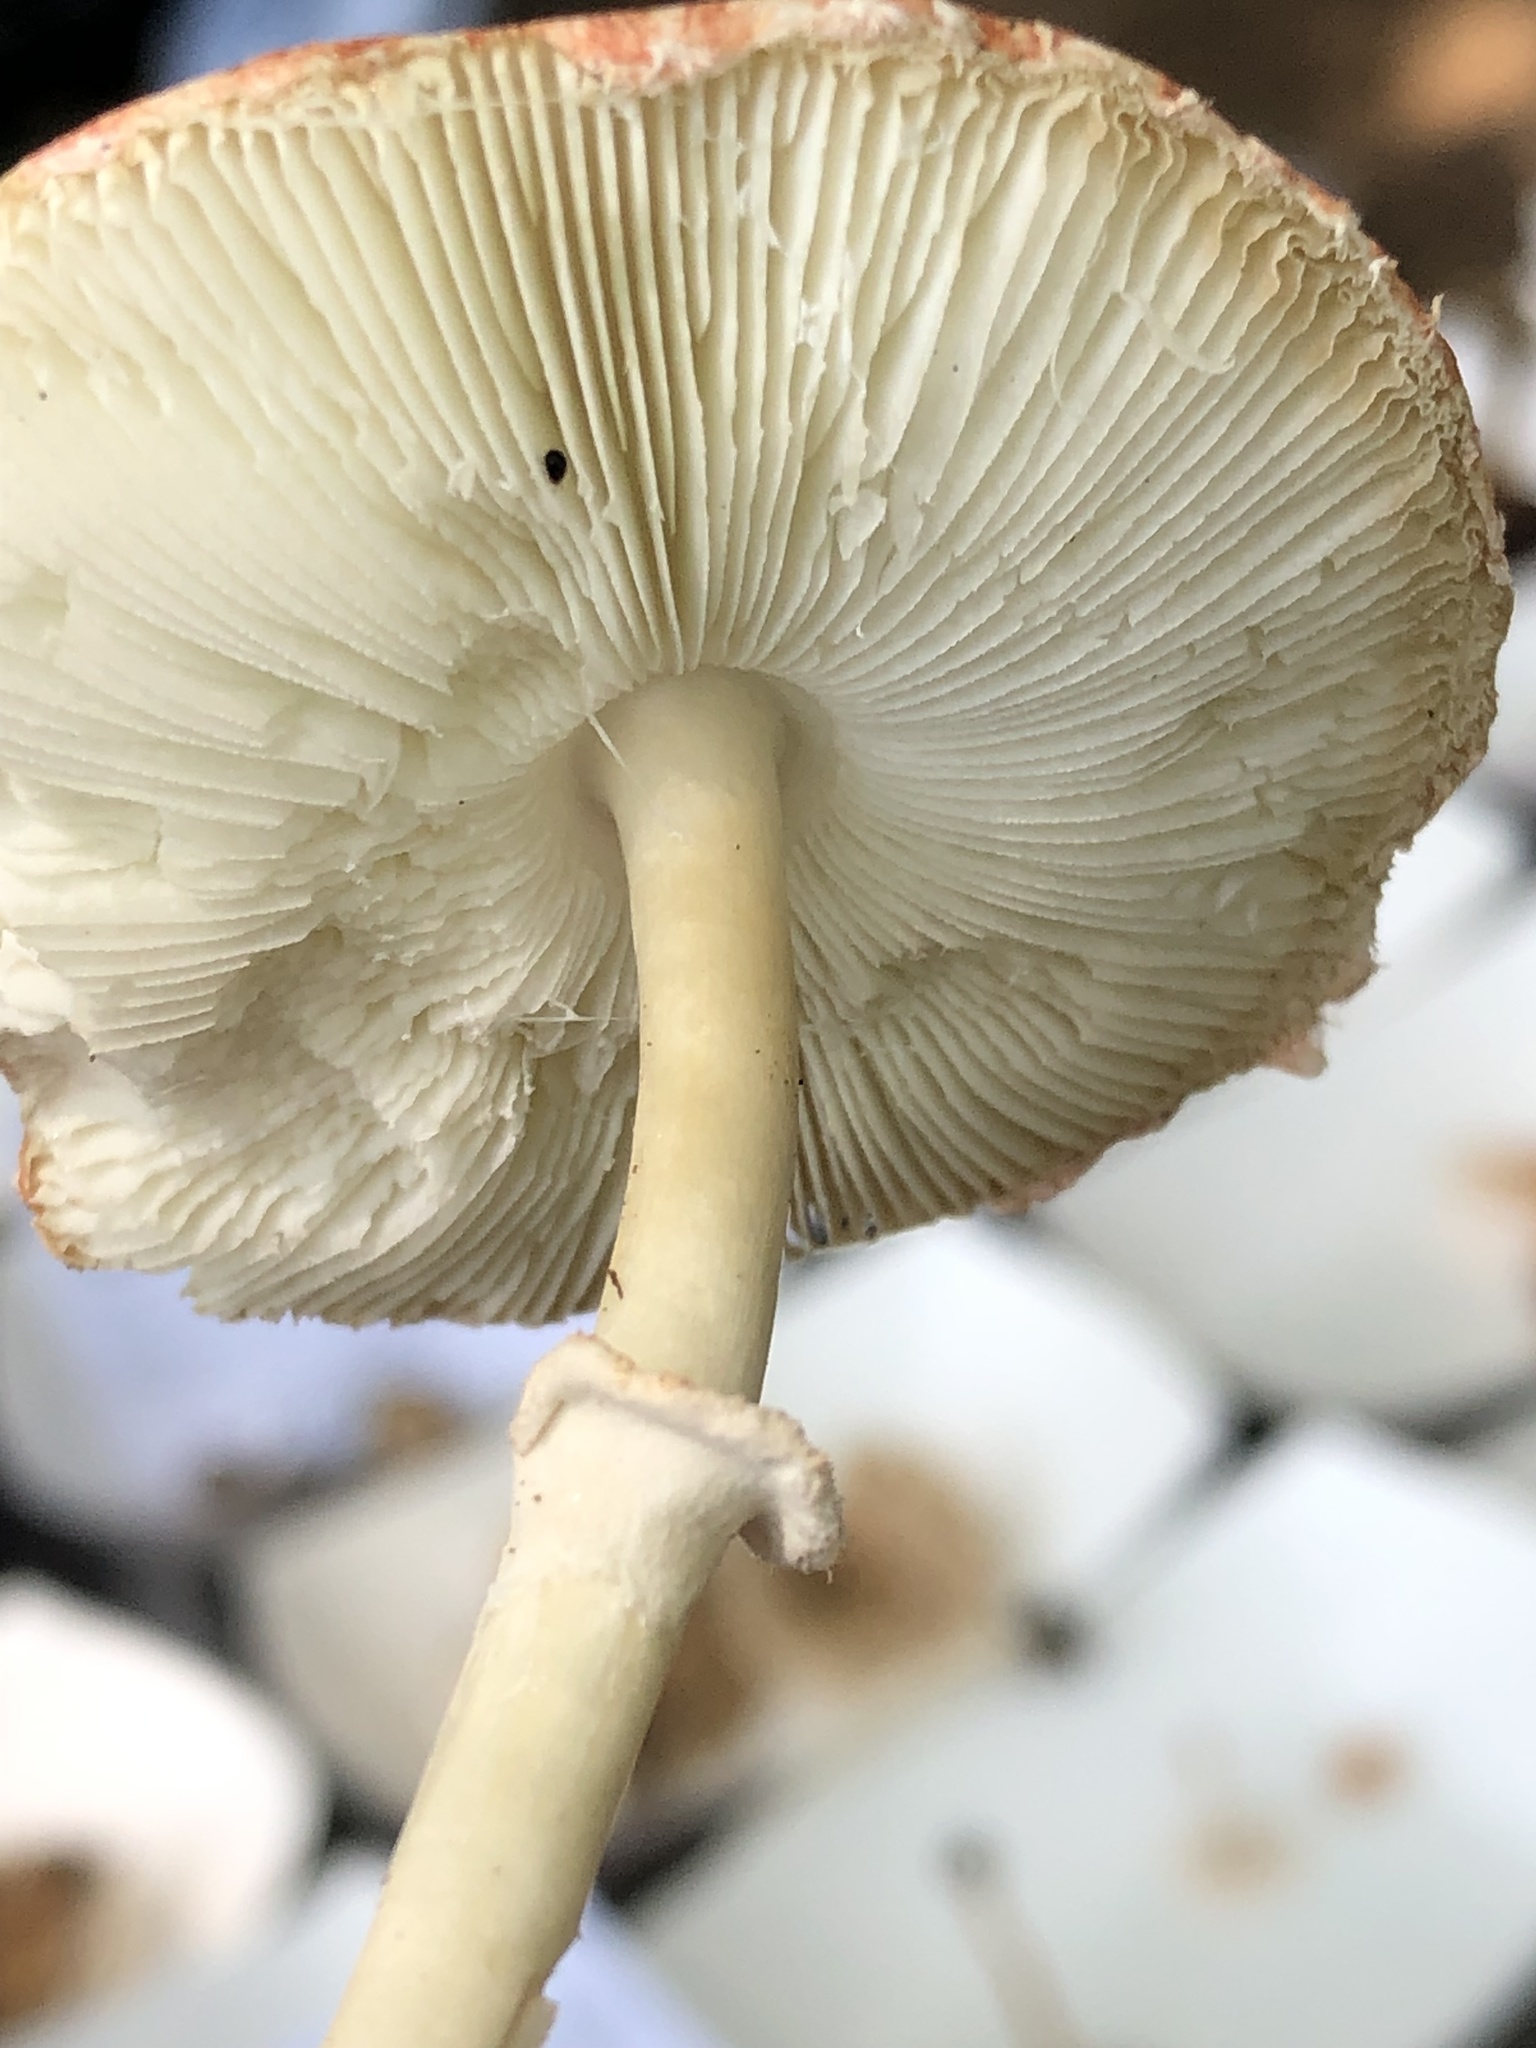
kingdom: Fungi
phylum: Basidiomycota
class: Agaricomycetes
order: Agaricales
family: Agaricaceae
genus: Leucoagaricus
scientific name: Leucoagaricus rubrotinctus
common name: Ruby dapperling
